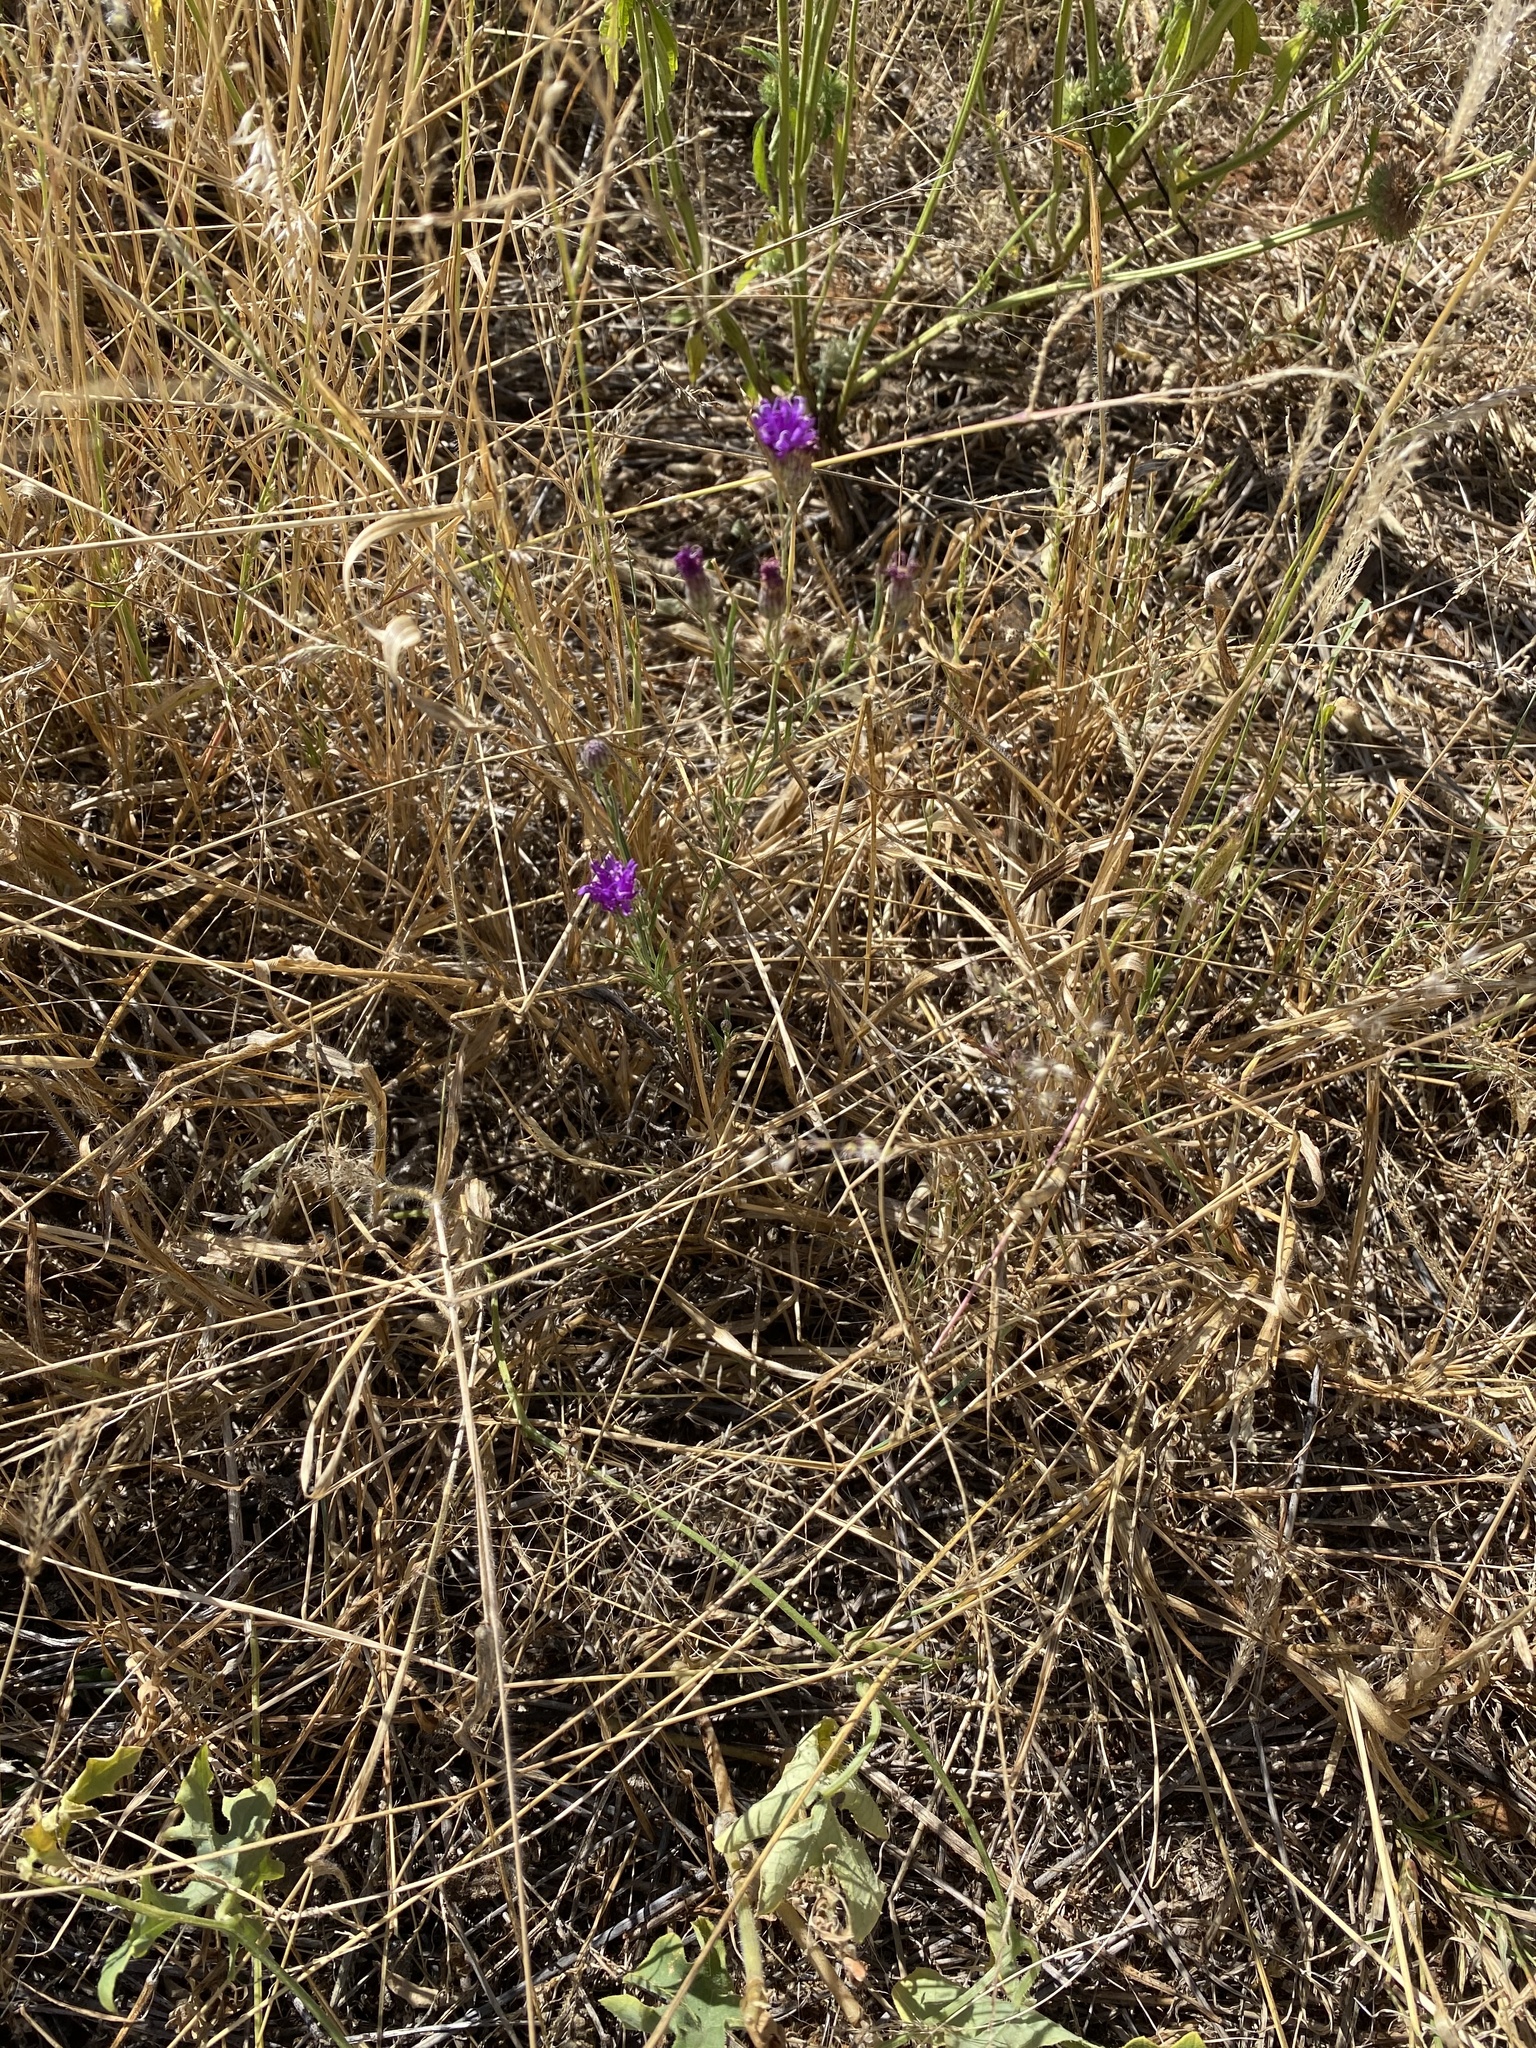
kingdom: Plantae
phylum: Tracheophyta
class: Magnoliopsida
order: Asterales
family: Asteraceae
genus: Crystallopollen
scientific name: Crystallopollen angustifolium
